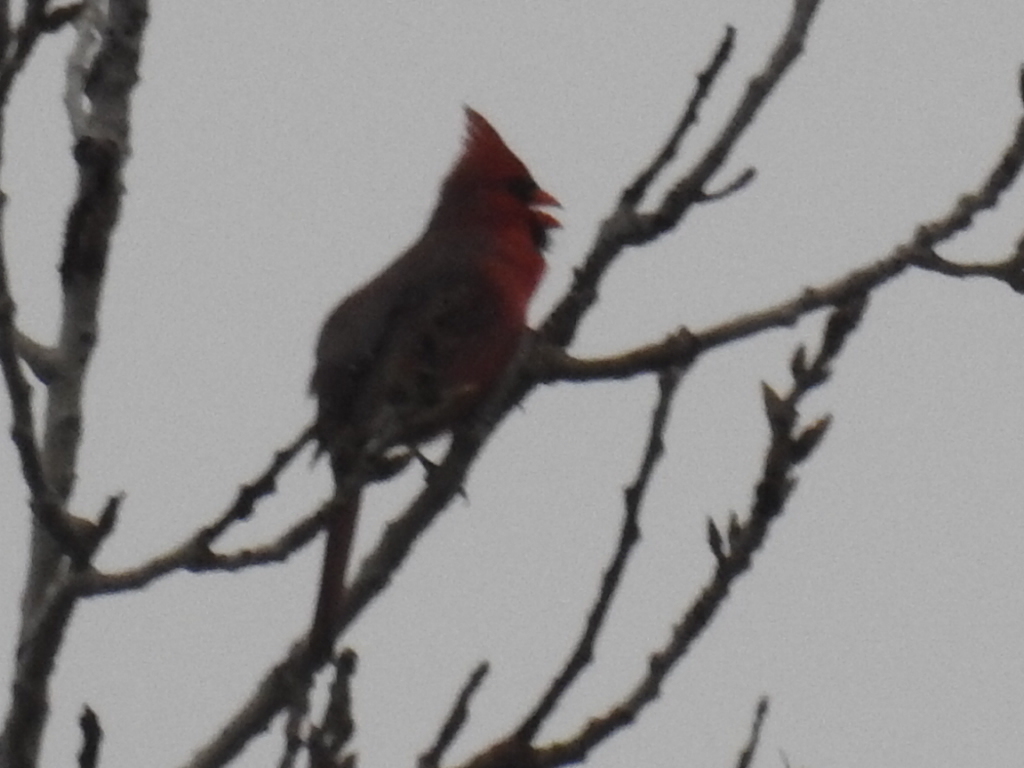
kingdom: Animalia
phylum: Chordata
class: Aves
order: Passeriformes
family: Cardinalidae
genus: Cardinalis
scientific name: Cardinalis cardinalis
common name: Northern cardinal
